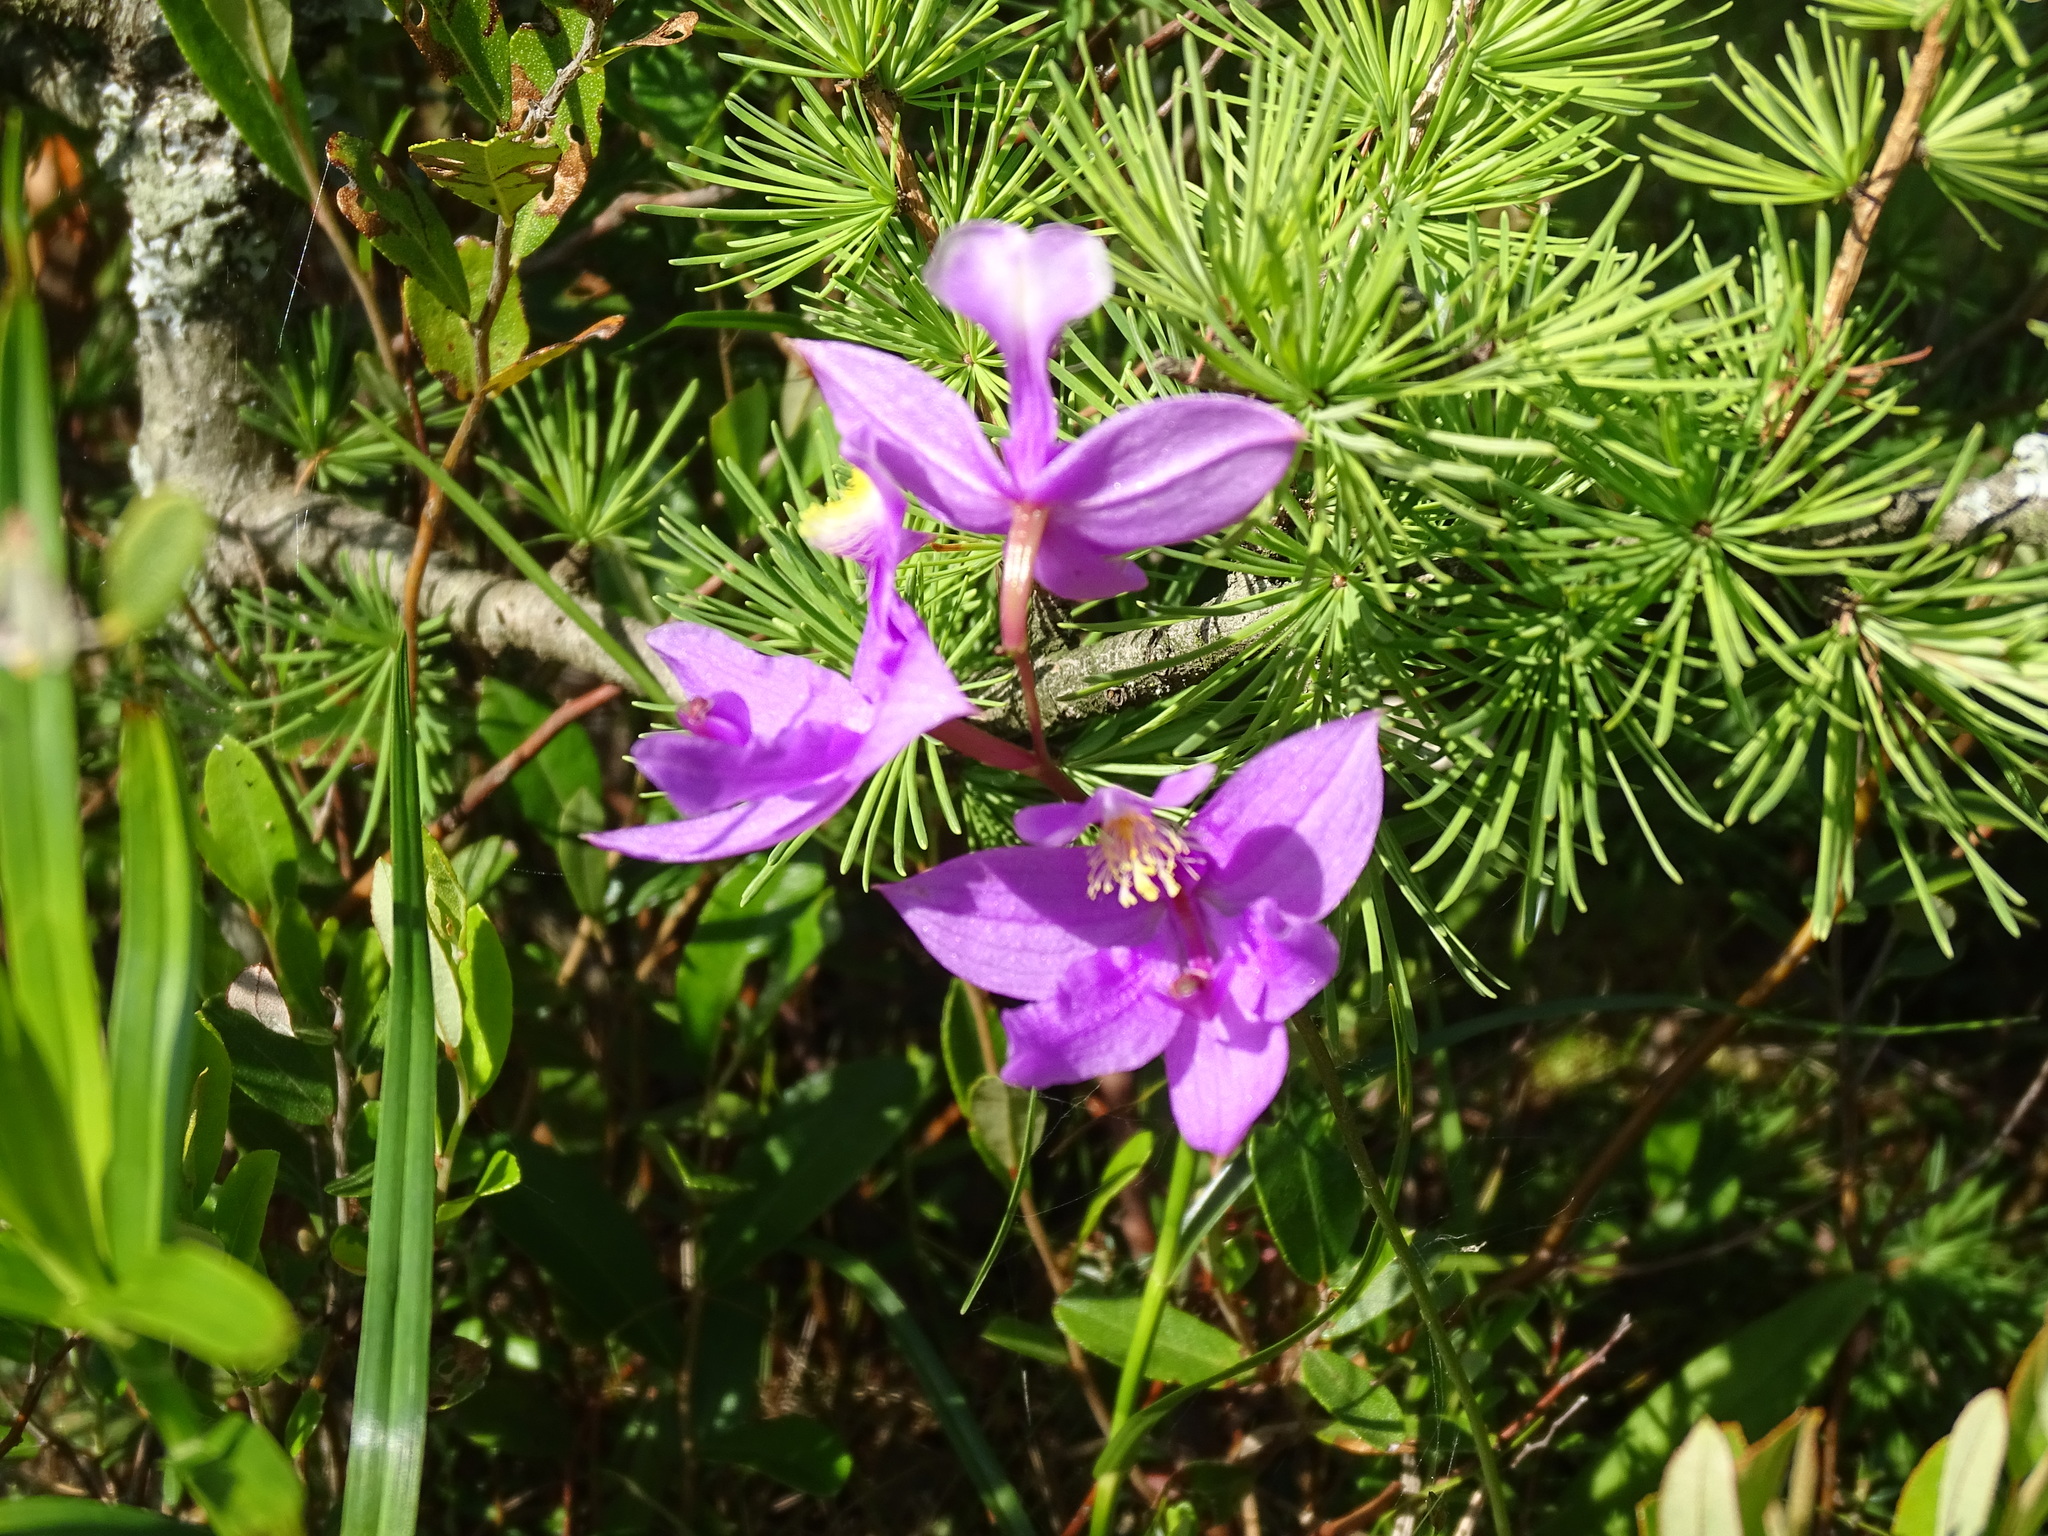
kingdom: Plantae
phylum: Tracheophyta
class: Liliopsida
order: Asparagales
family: Orchidaceae
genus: Calopogon
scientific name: Calopogon tuberosus
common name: Grass-pink
